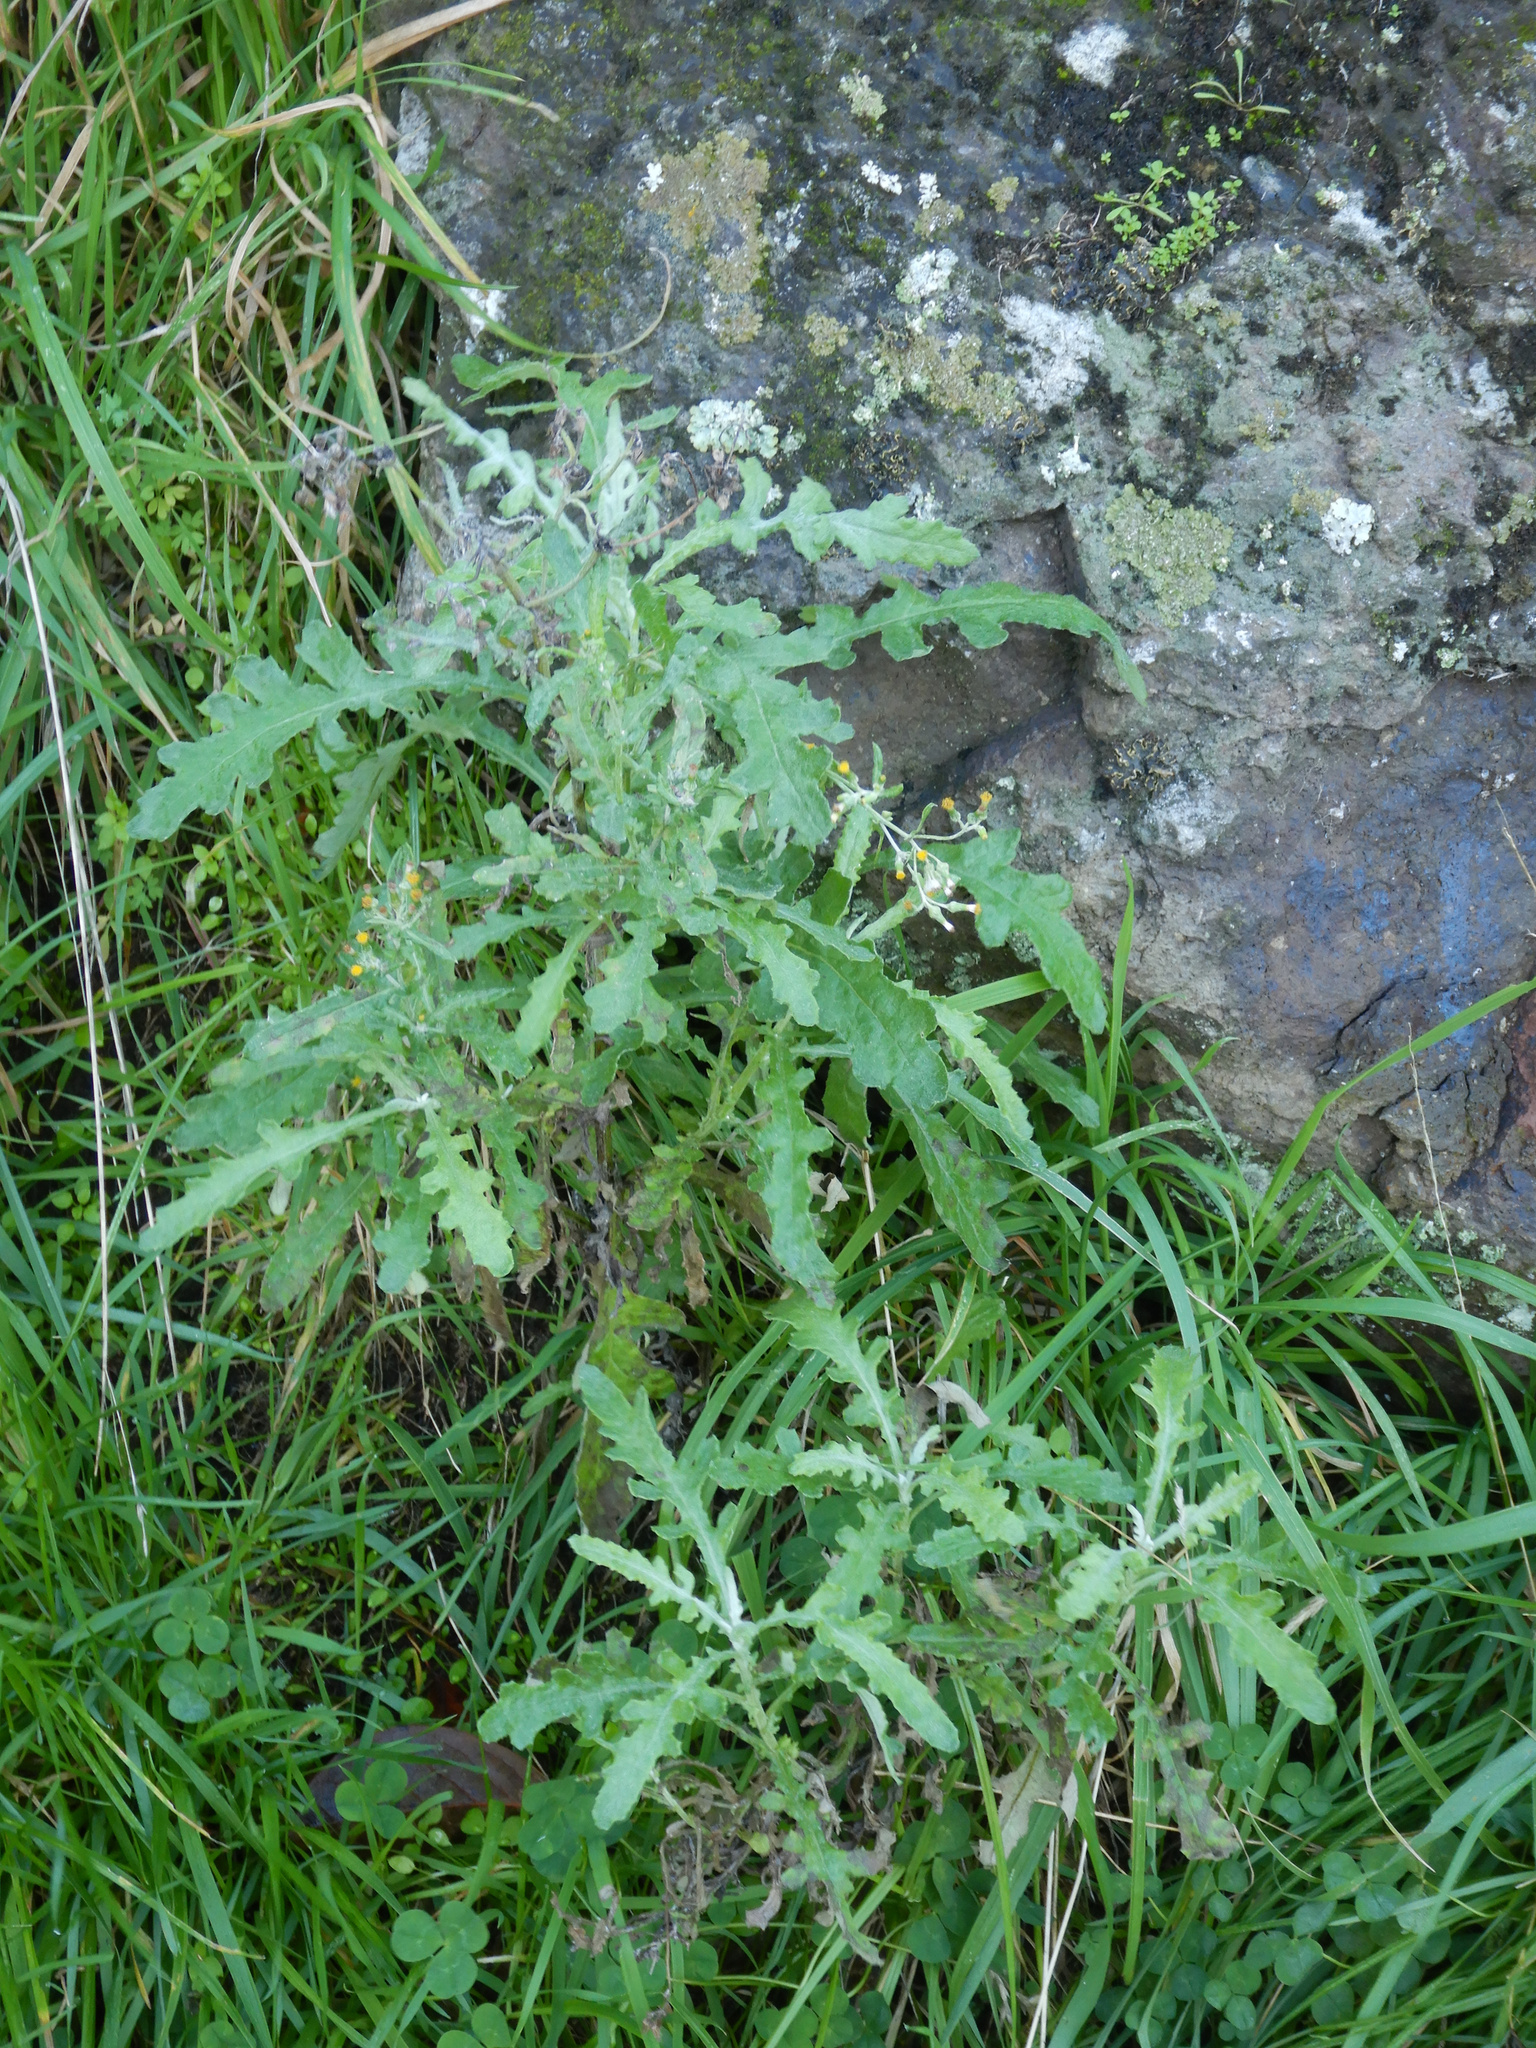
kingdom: Plantae
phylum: Tracheophyta
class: Magnoliopsida
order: Asterales
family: Asteraceae
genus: Senecio
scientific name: Senecio glomeratus
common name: Cutleaf burnweed
